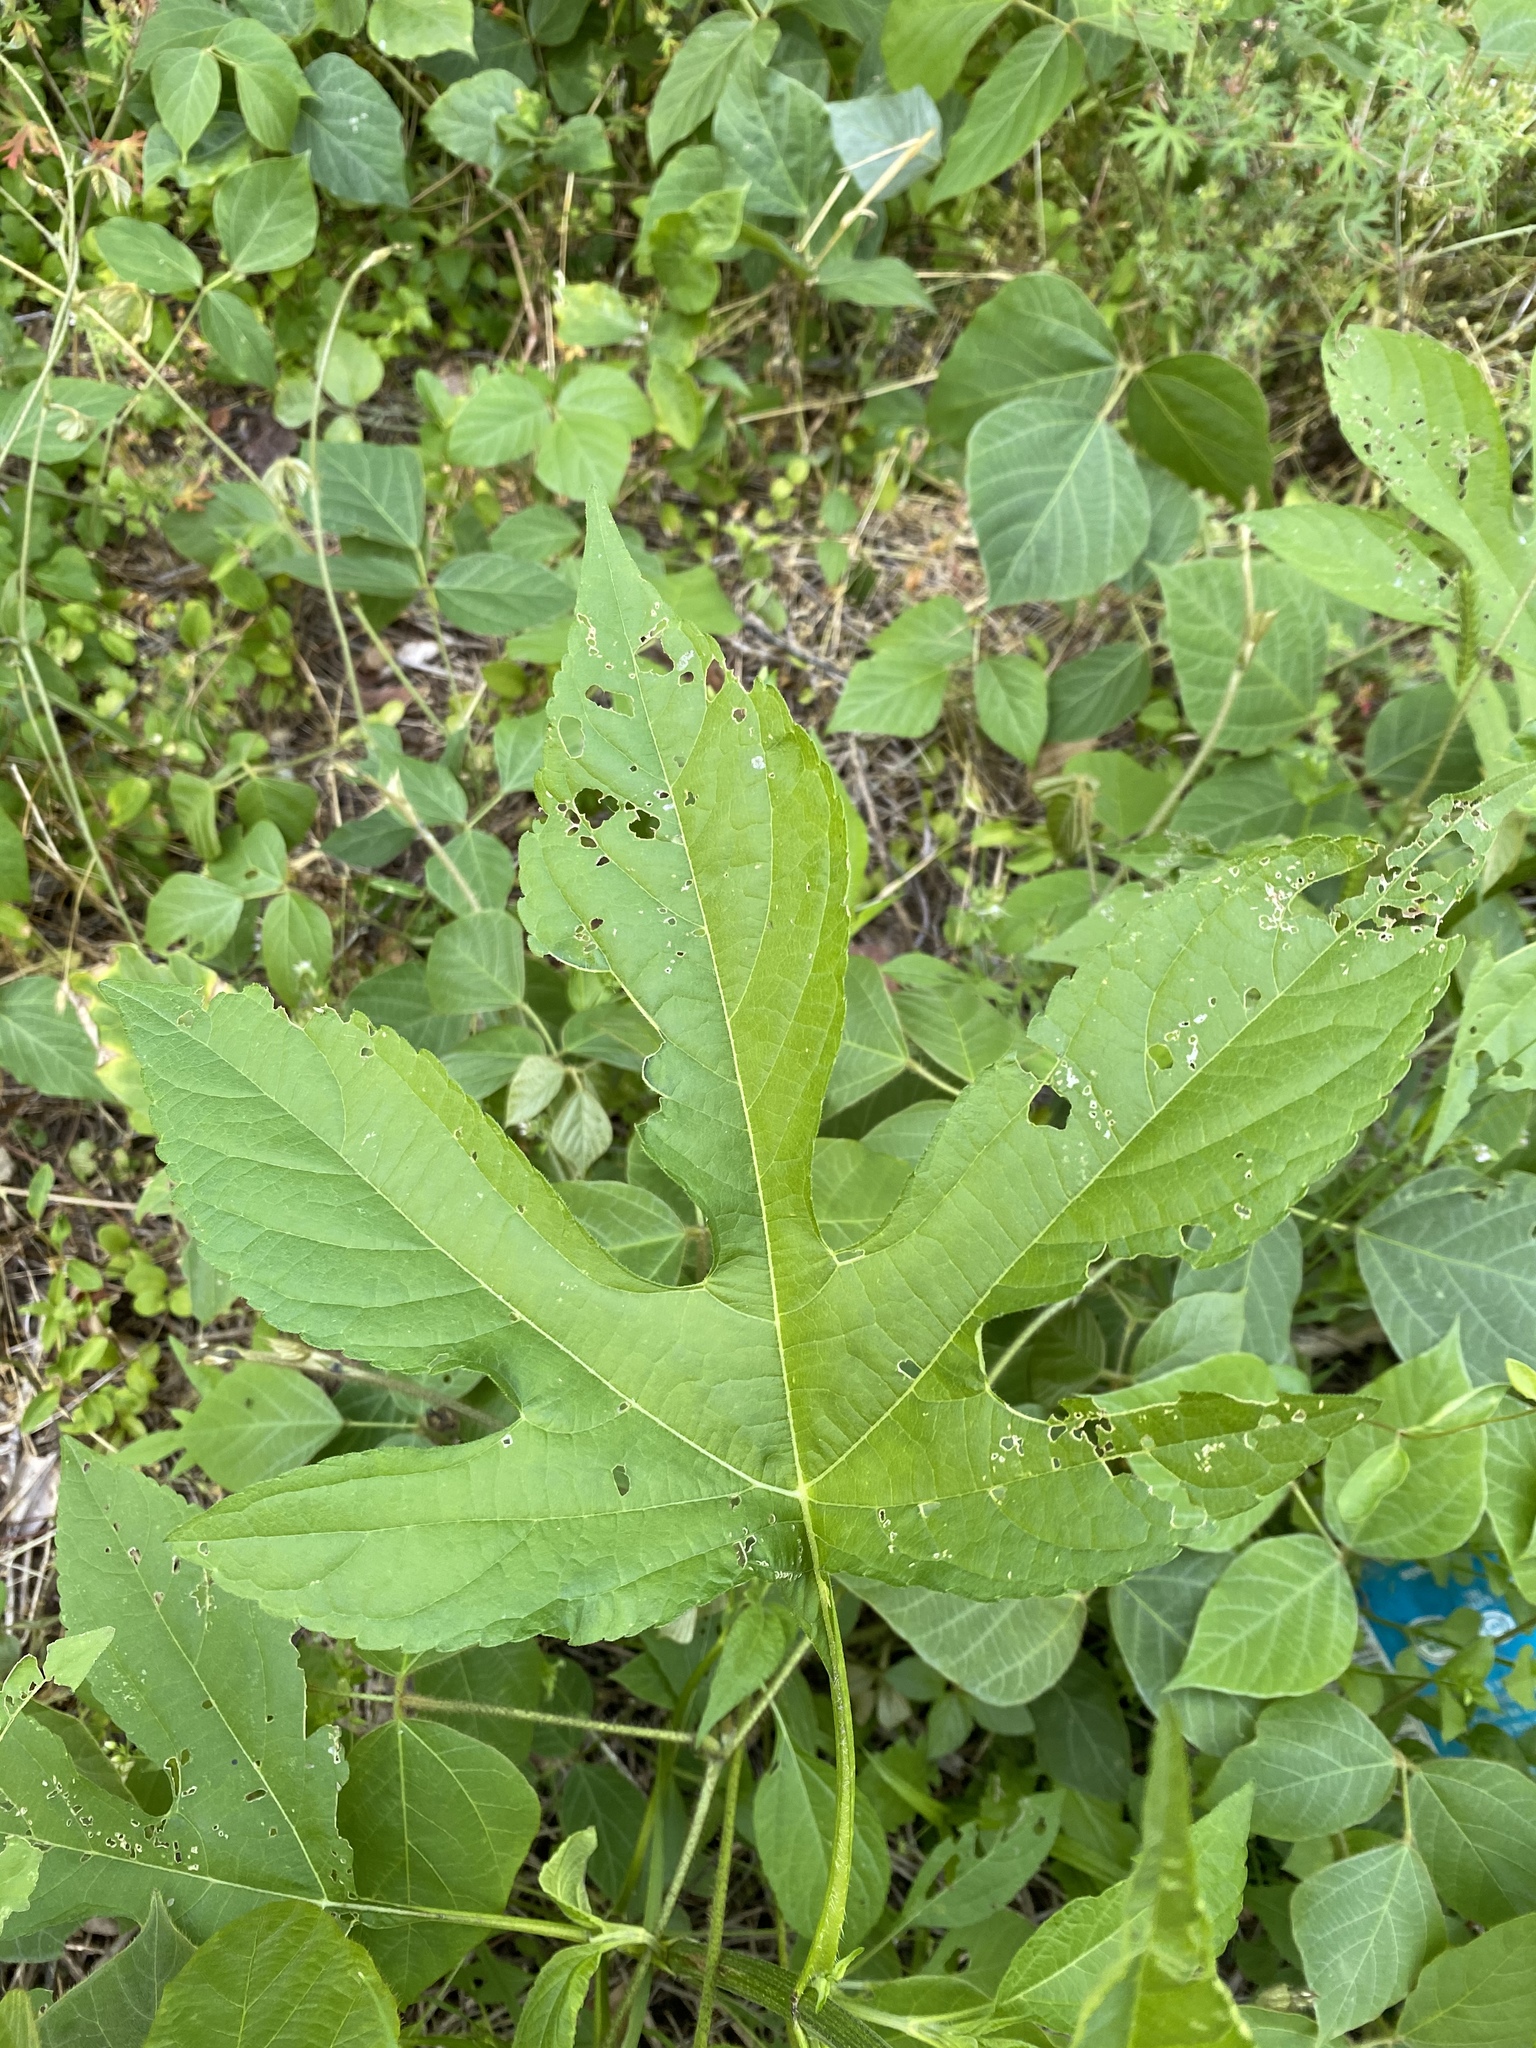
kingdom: Plantae
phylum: Tracheophyta
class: Magnoliopsida
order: Asterales
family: Asteraceae
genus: Ambrosia
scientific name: Ambrosia trifida
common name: Giant ragweed
